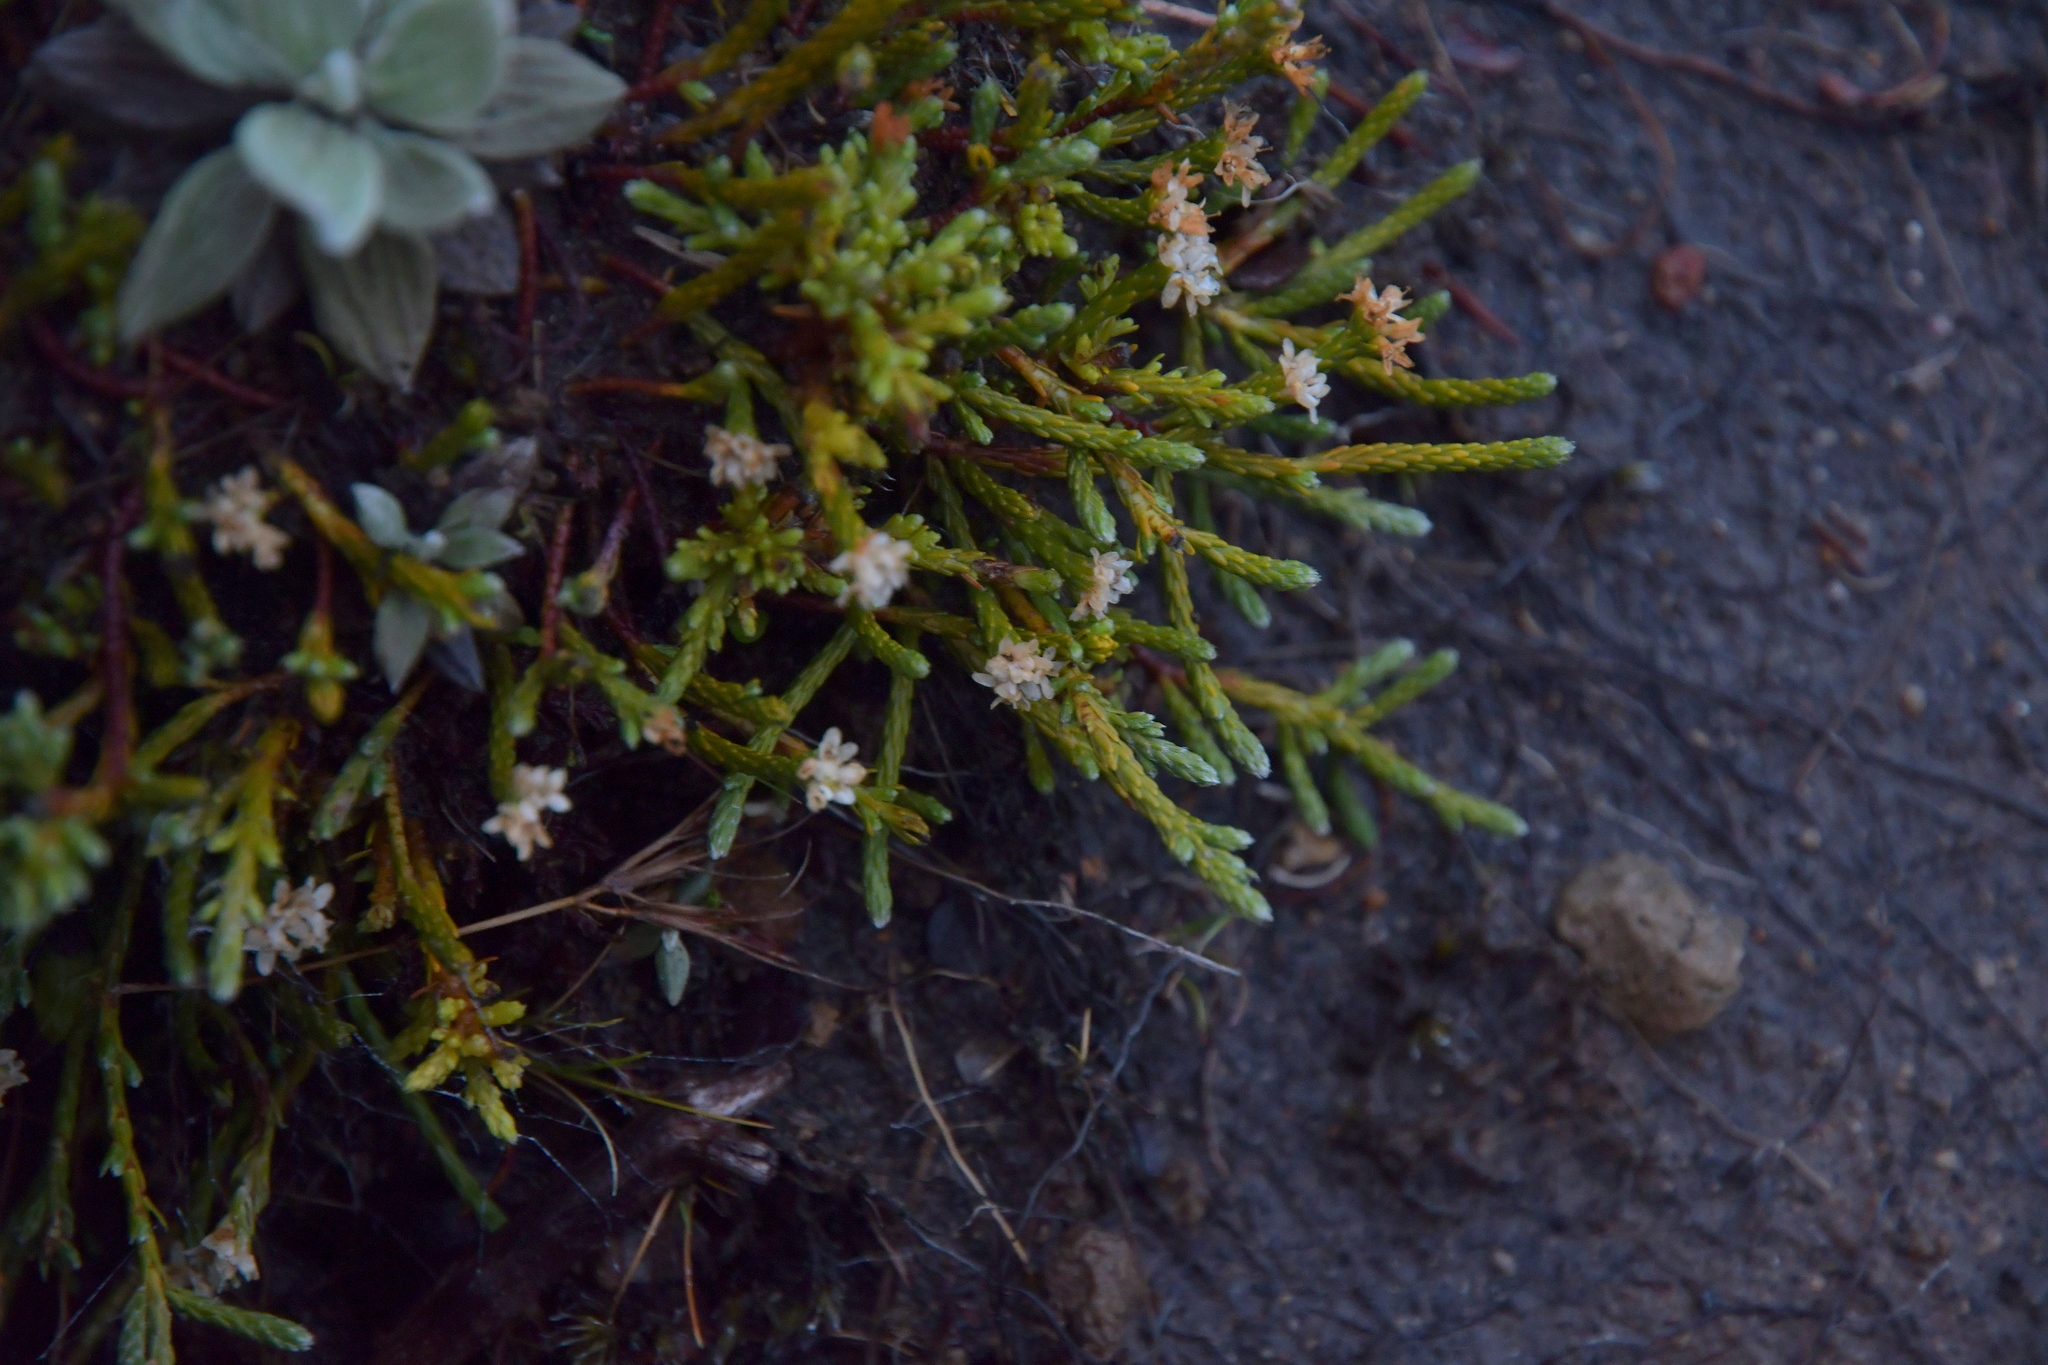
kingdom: Plantae
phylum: Tracheophyta
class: Magnoliopsida
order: Malvales
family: Thymelaeaceae
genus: Kelleria
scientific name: Kelleria dieffenbachii
